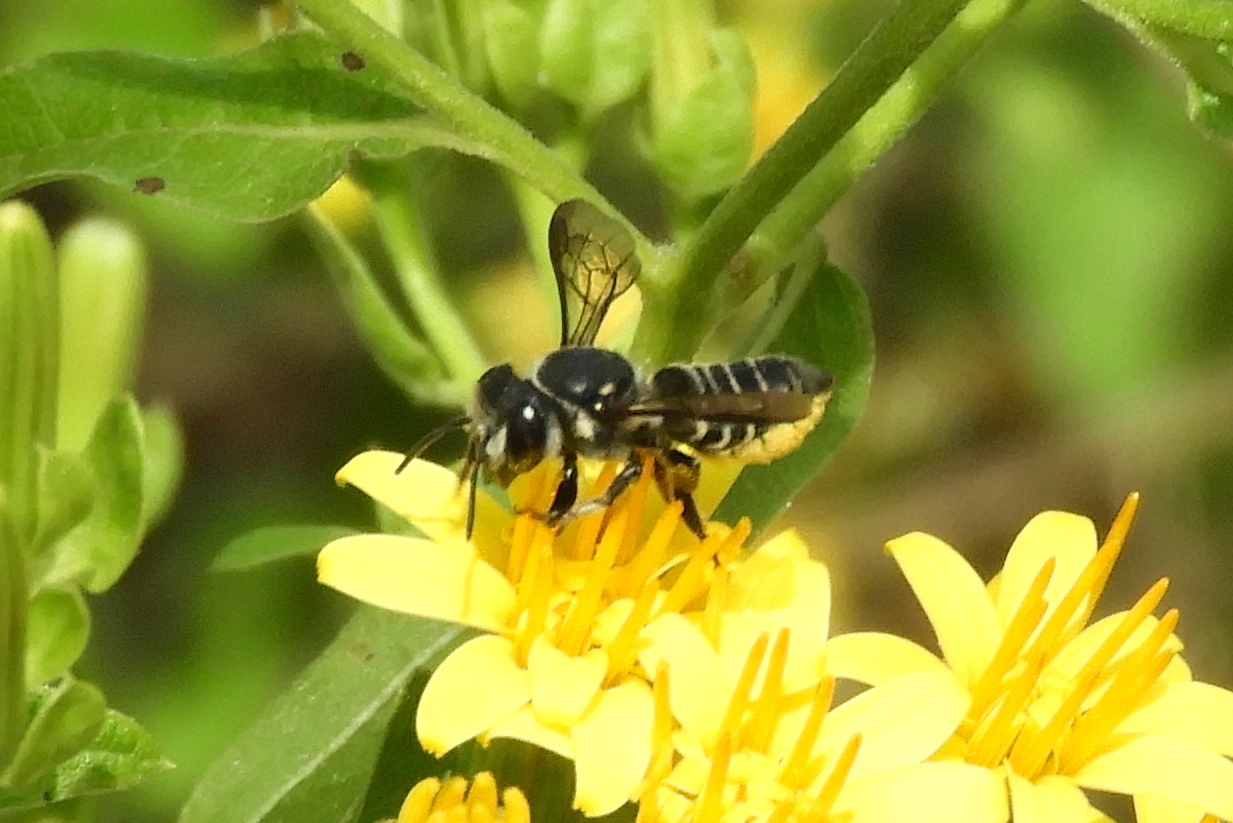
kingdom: Animalia
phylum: Arthropoda
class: Insecta
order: Hymenoptera
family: Megachilidae
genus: Megachile
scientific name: Megachile
